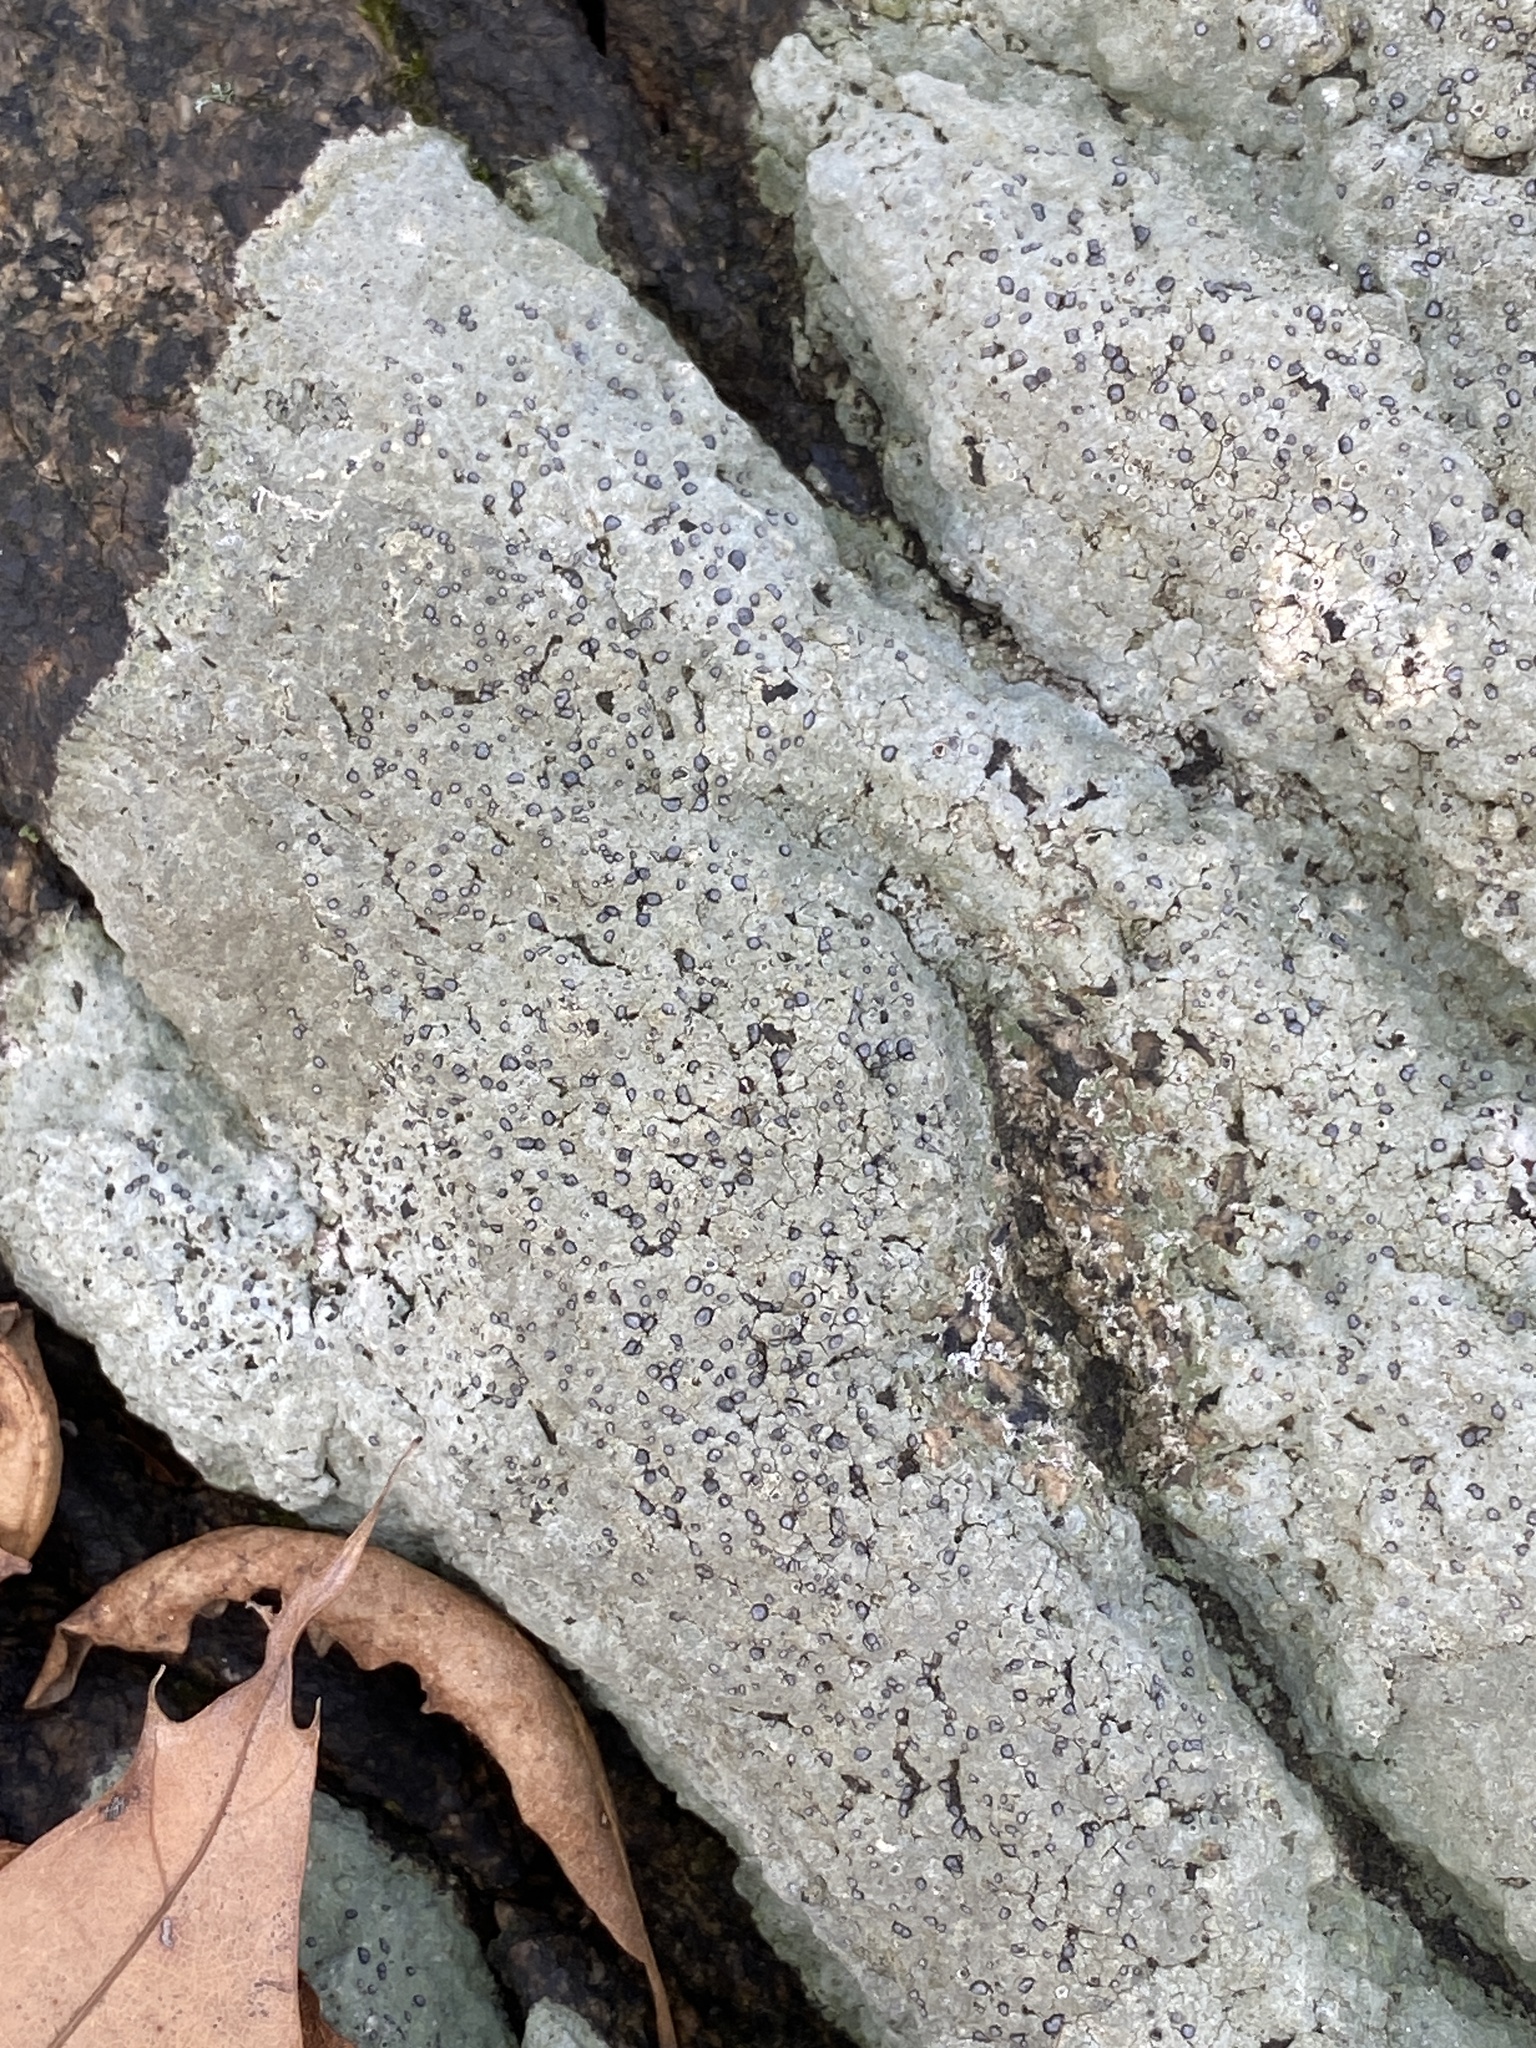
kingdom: Fungi
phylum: Ascomycota
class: Lecanoromycetes
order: Lecideales
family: Lecideaceae
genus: Porpidia
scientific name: Porpidia albocaerulescens
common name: Smokey-eyed boulder lichen
